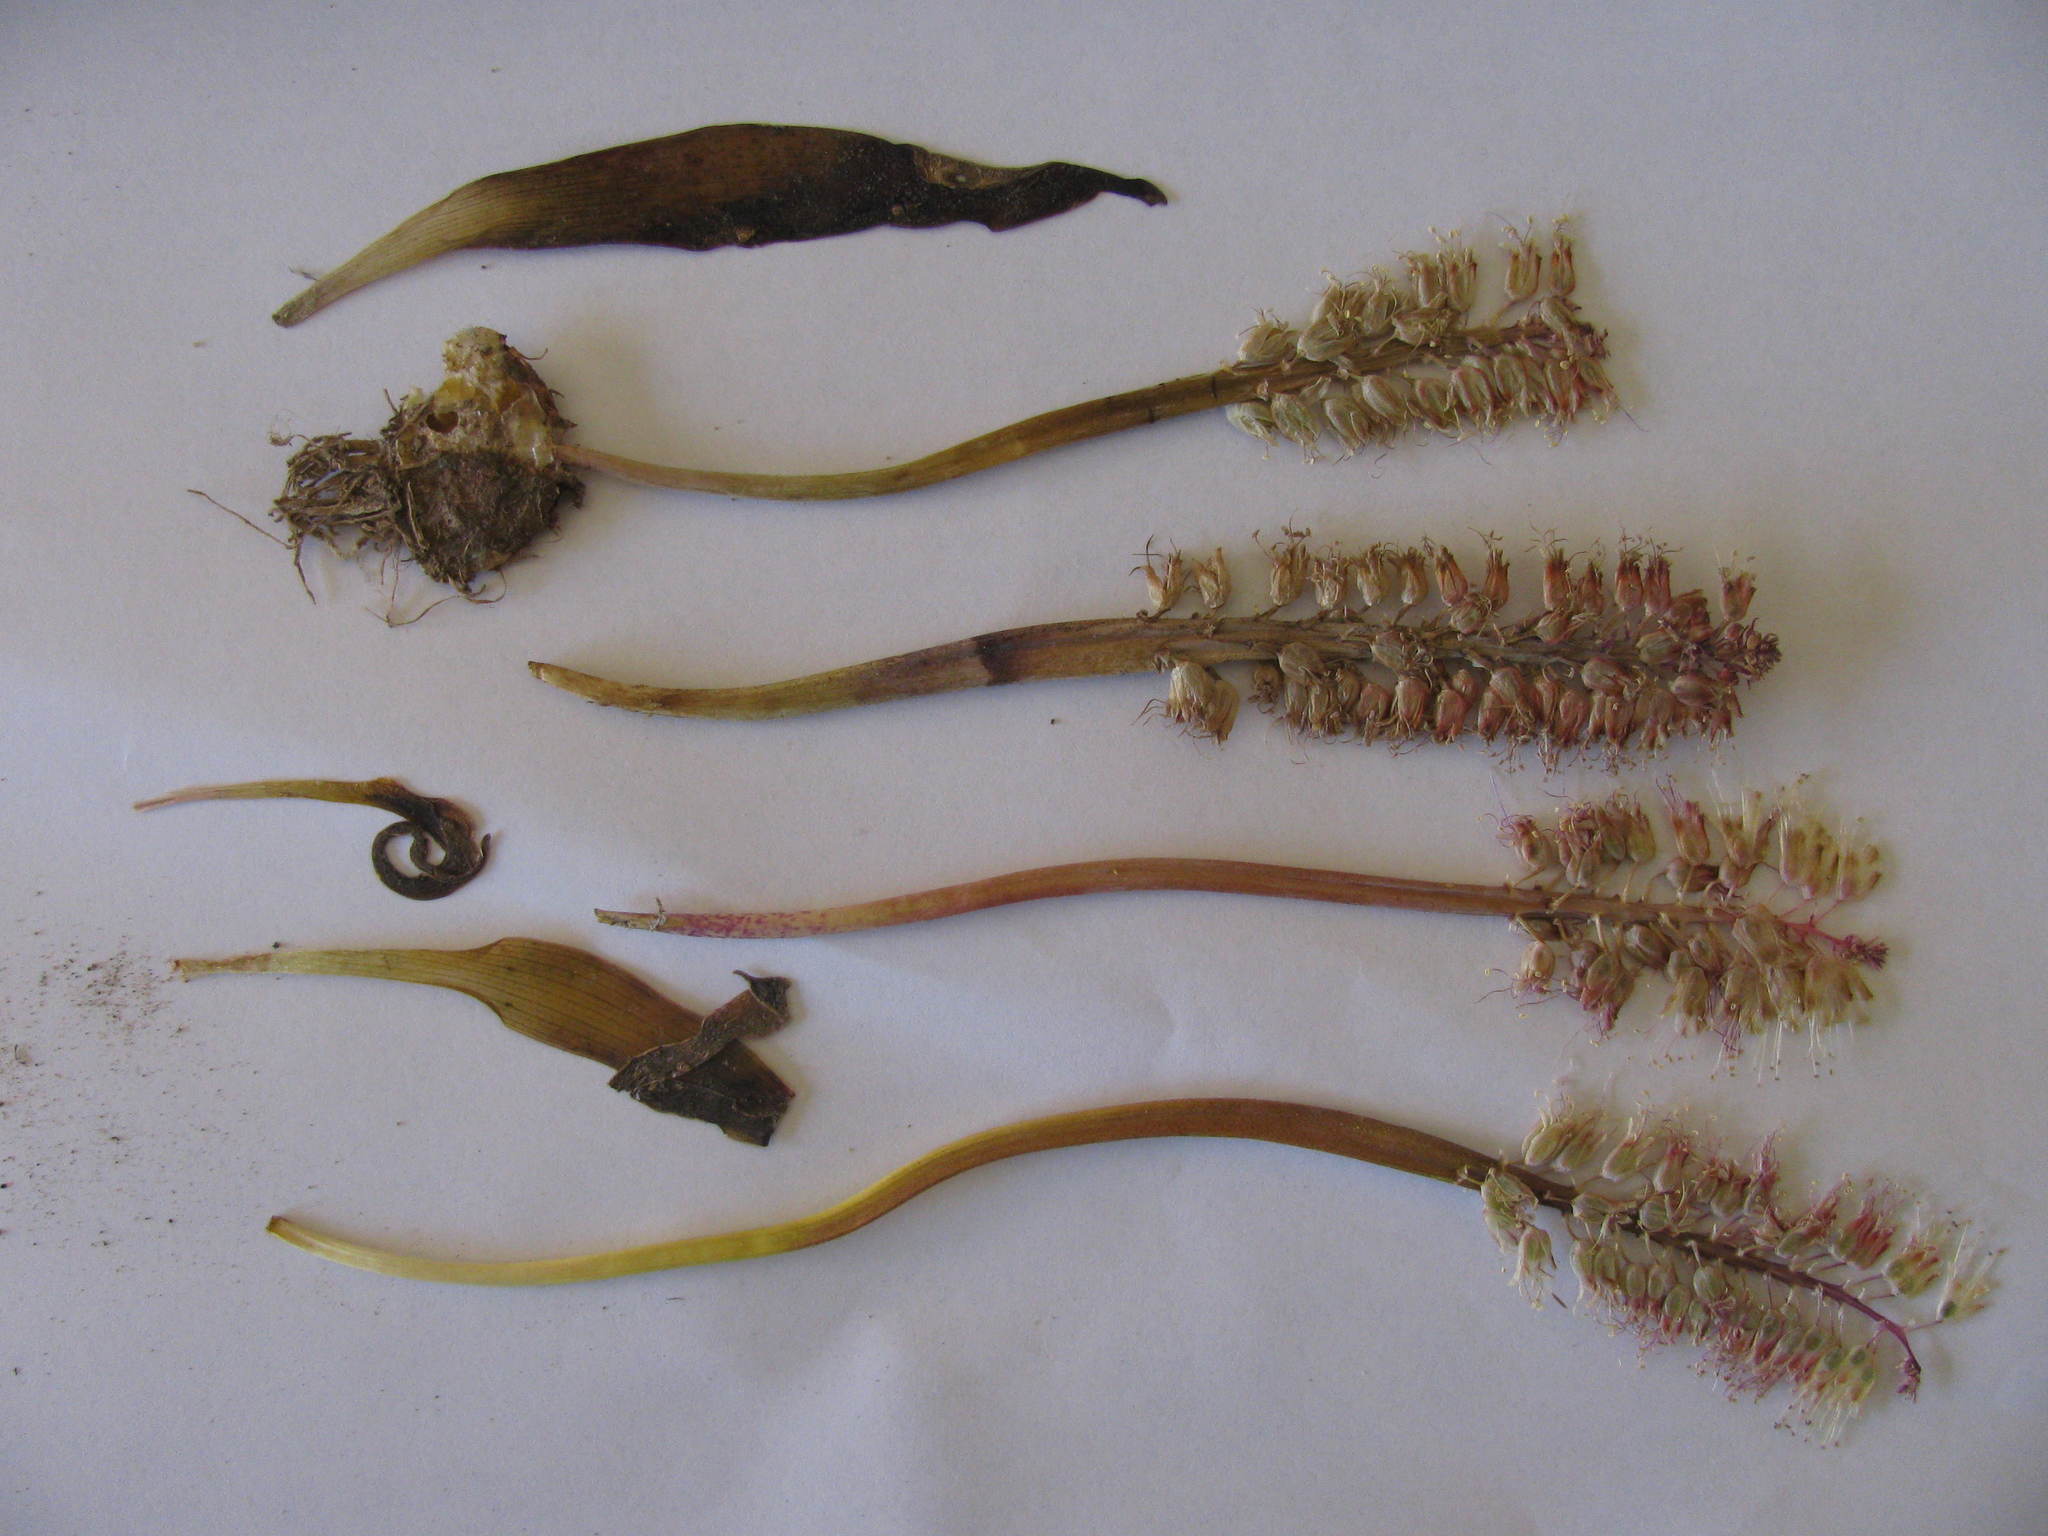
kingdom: Plantae
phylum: Tracheophyta
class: Liliopsida
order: Asparagales
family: Asparagaceae
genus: Lachenalia
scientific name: Lachenalia stayneri
